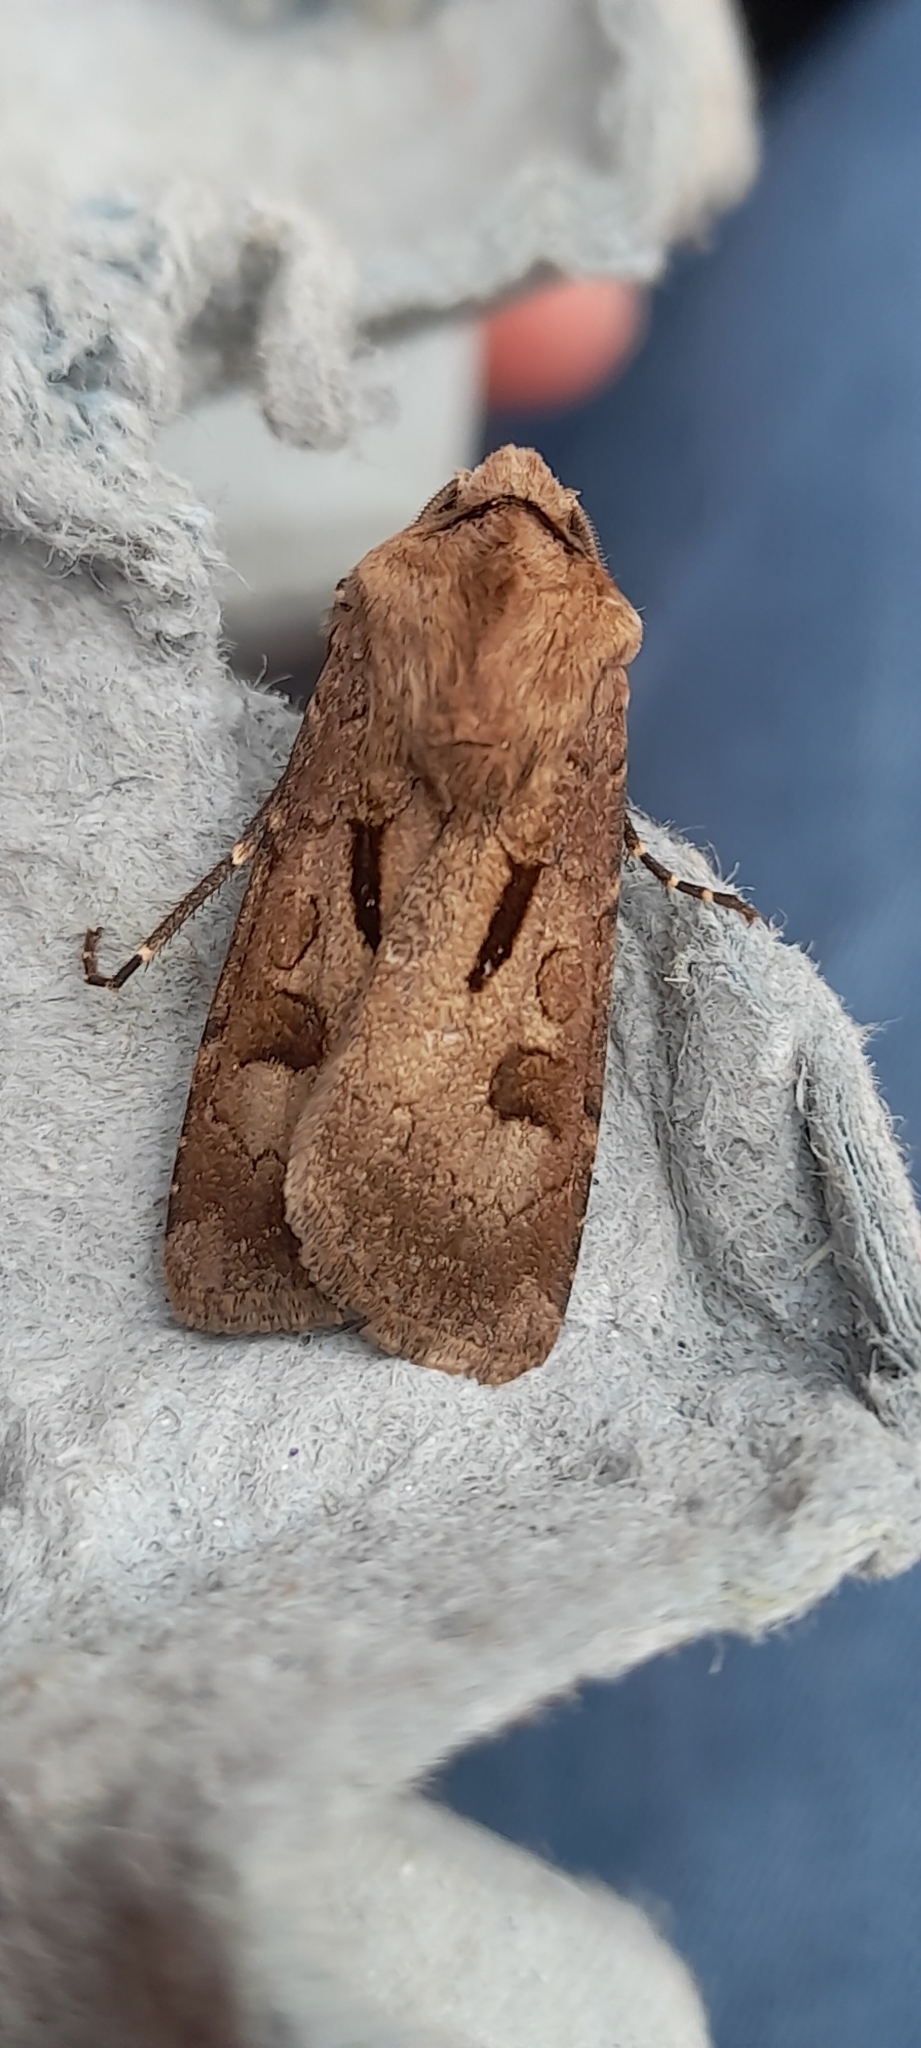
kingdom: Animalia
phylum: Arthropoda
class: Insecta
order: Lepidoptera
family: Noctuidae
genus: Agrotis
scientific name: Agrotis exclamationis
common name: Heart and dart
